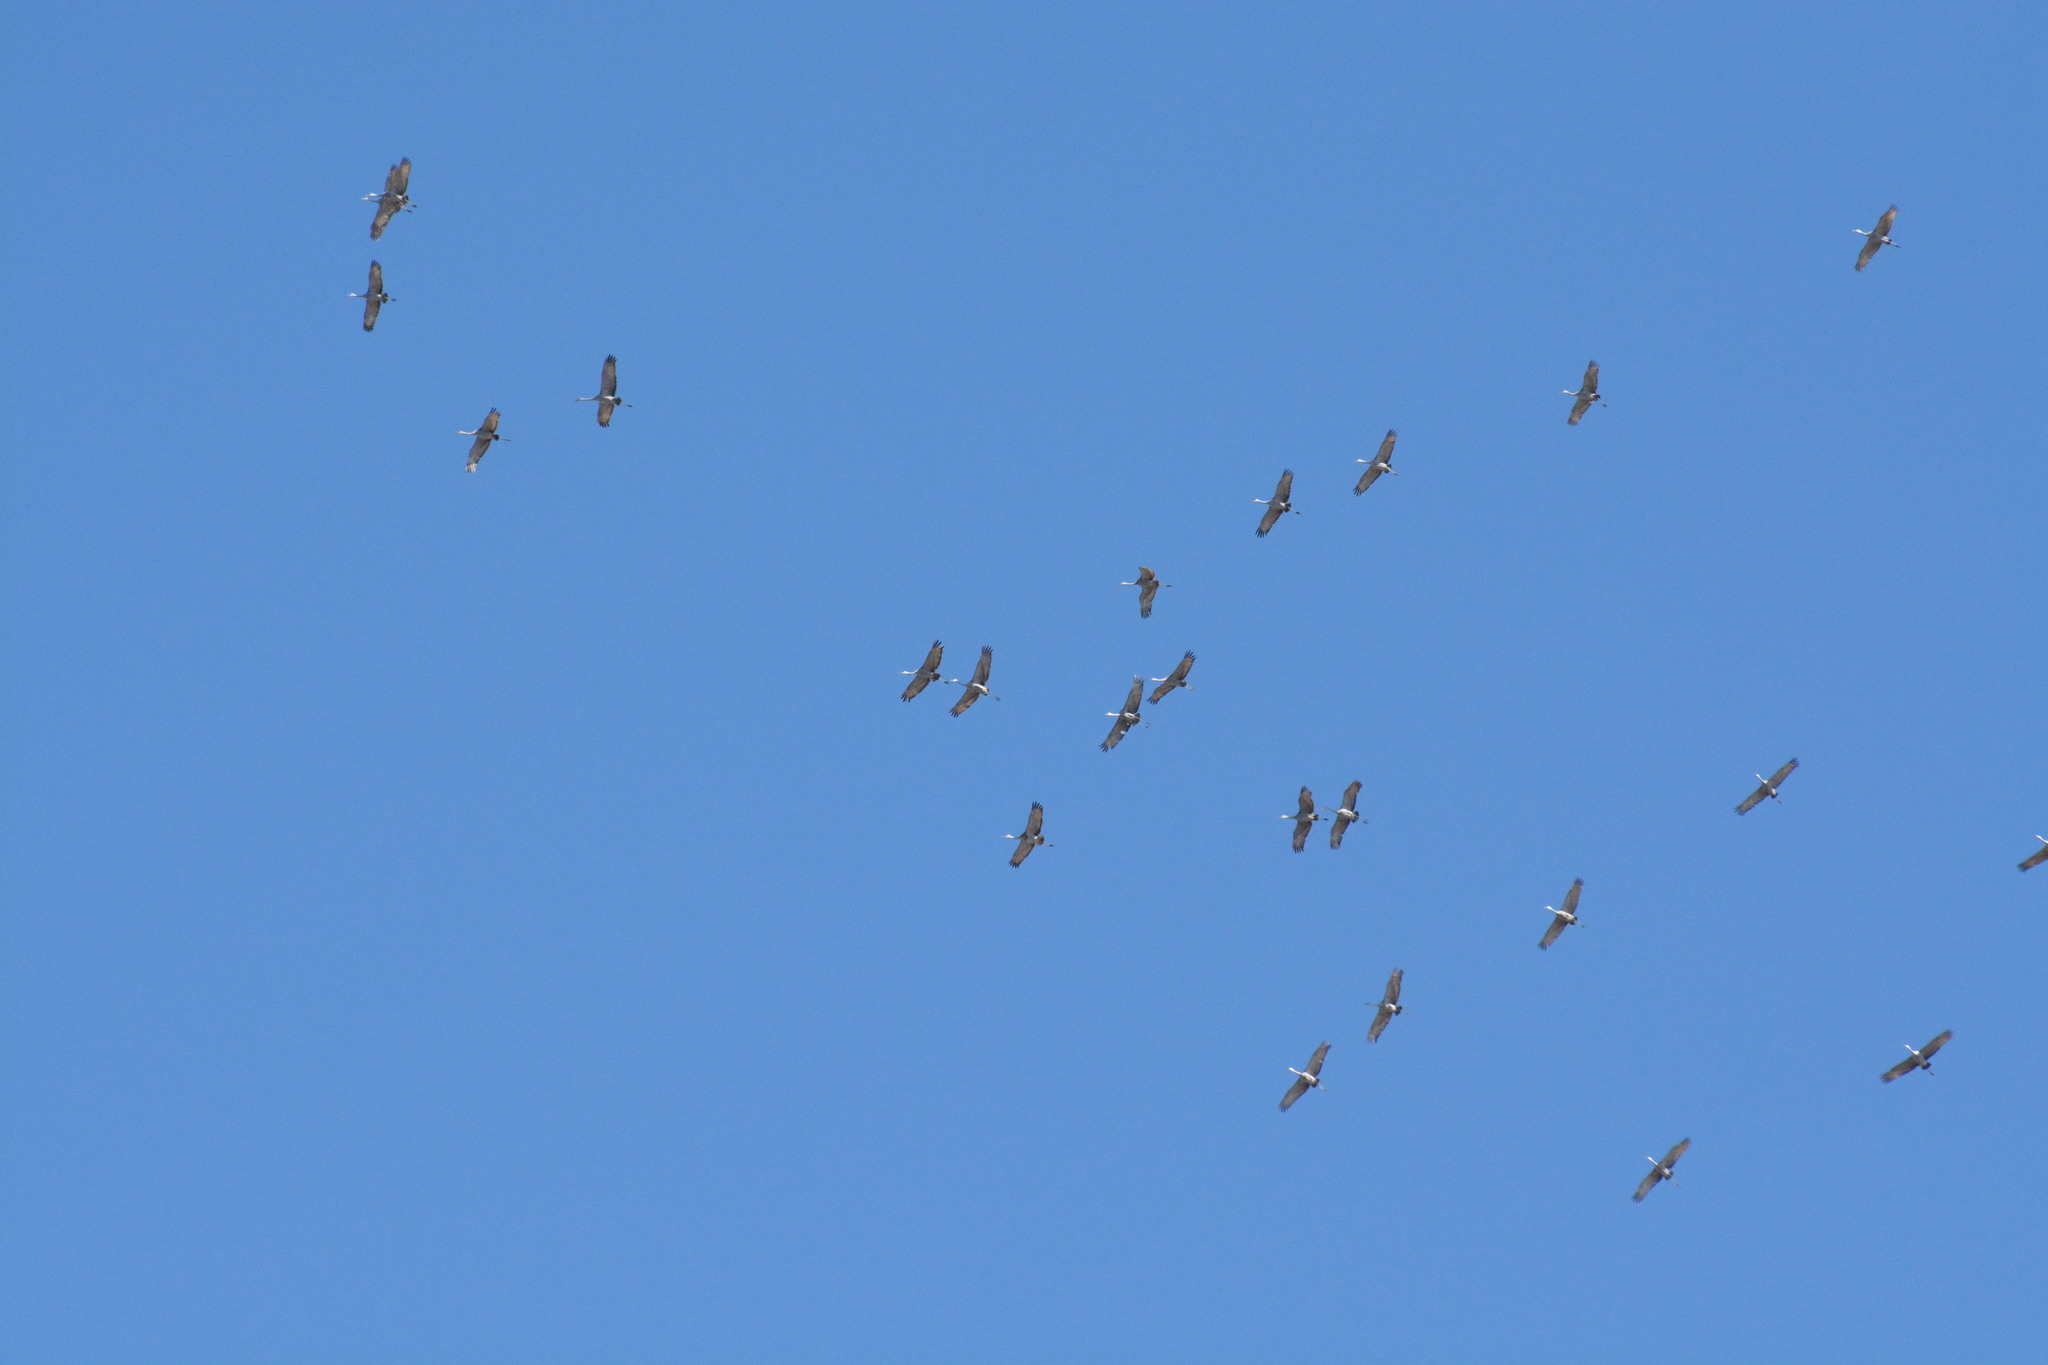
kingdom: Animalia
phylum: Chordata
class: Aves
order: Gruiformes
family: Gruidae
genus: Grus
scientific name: Grus canadensis
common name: Sandhill crane
